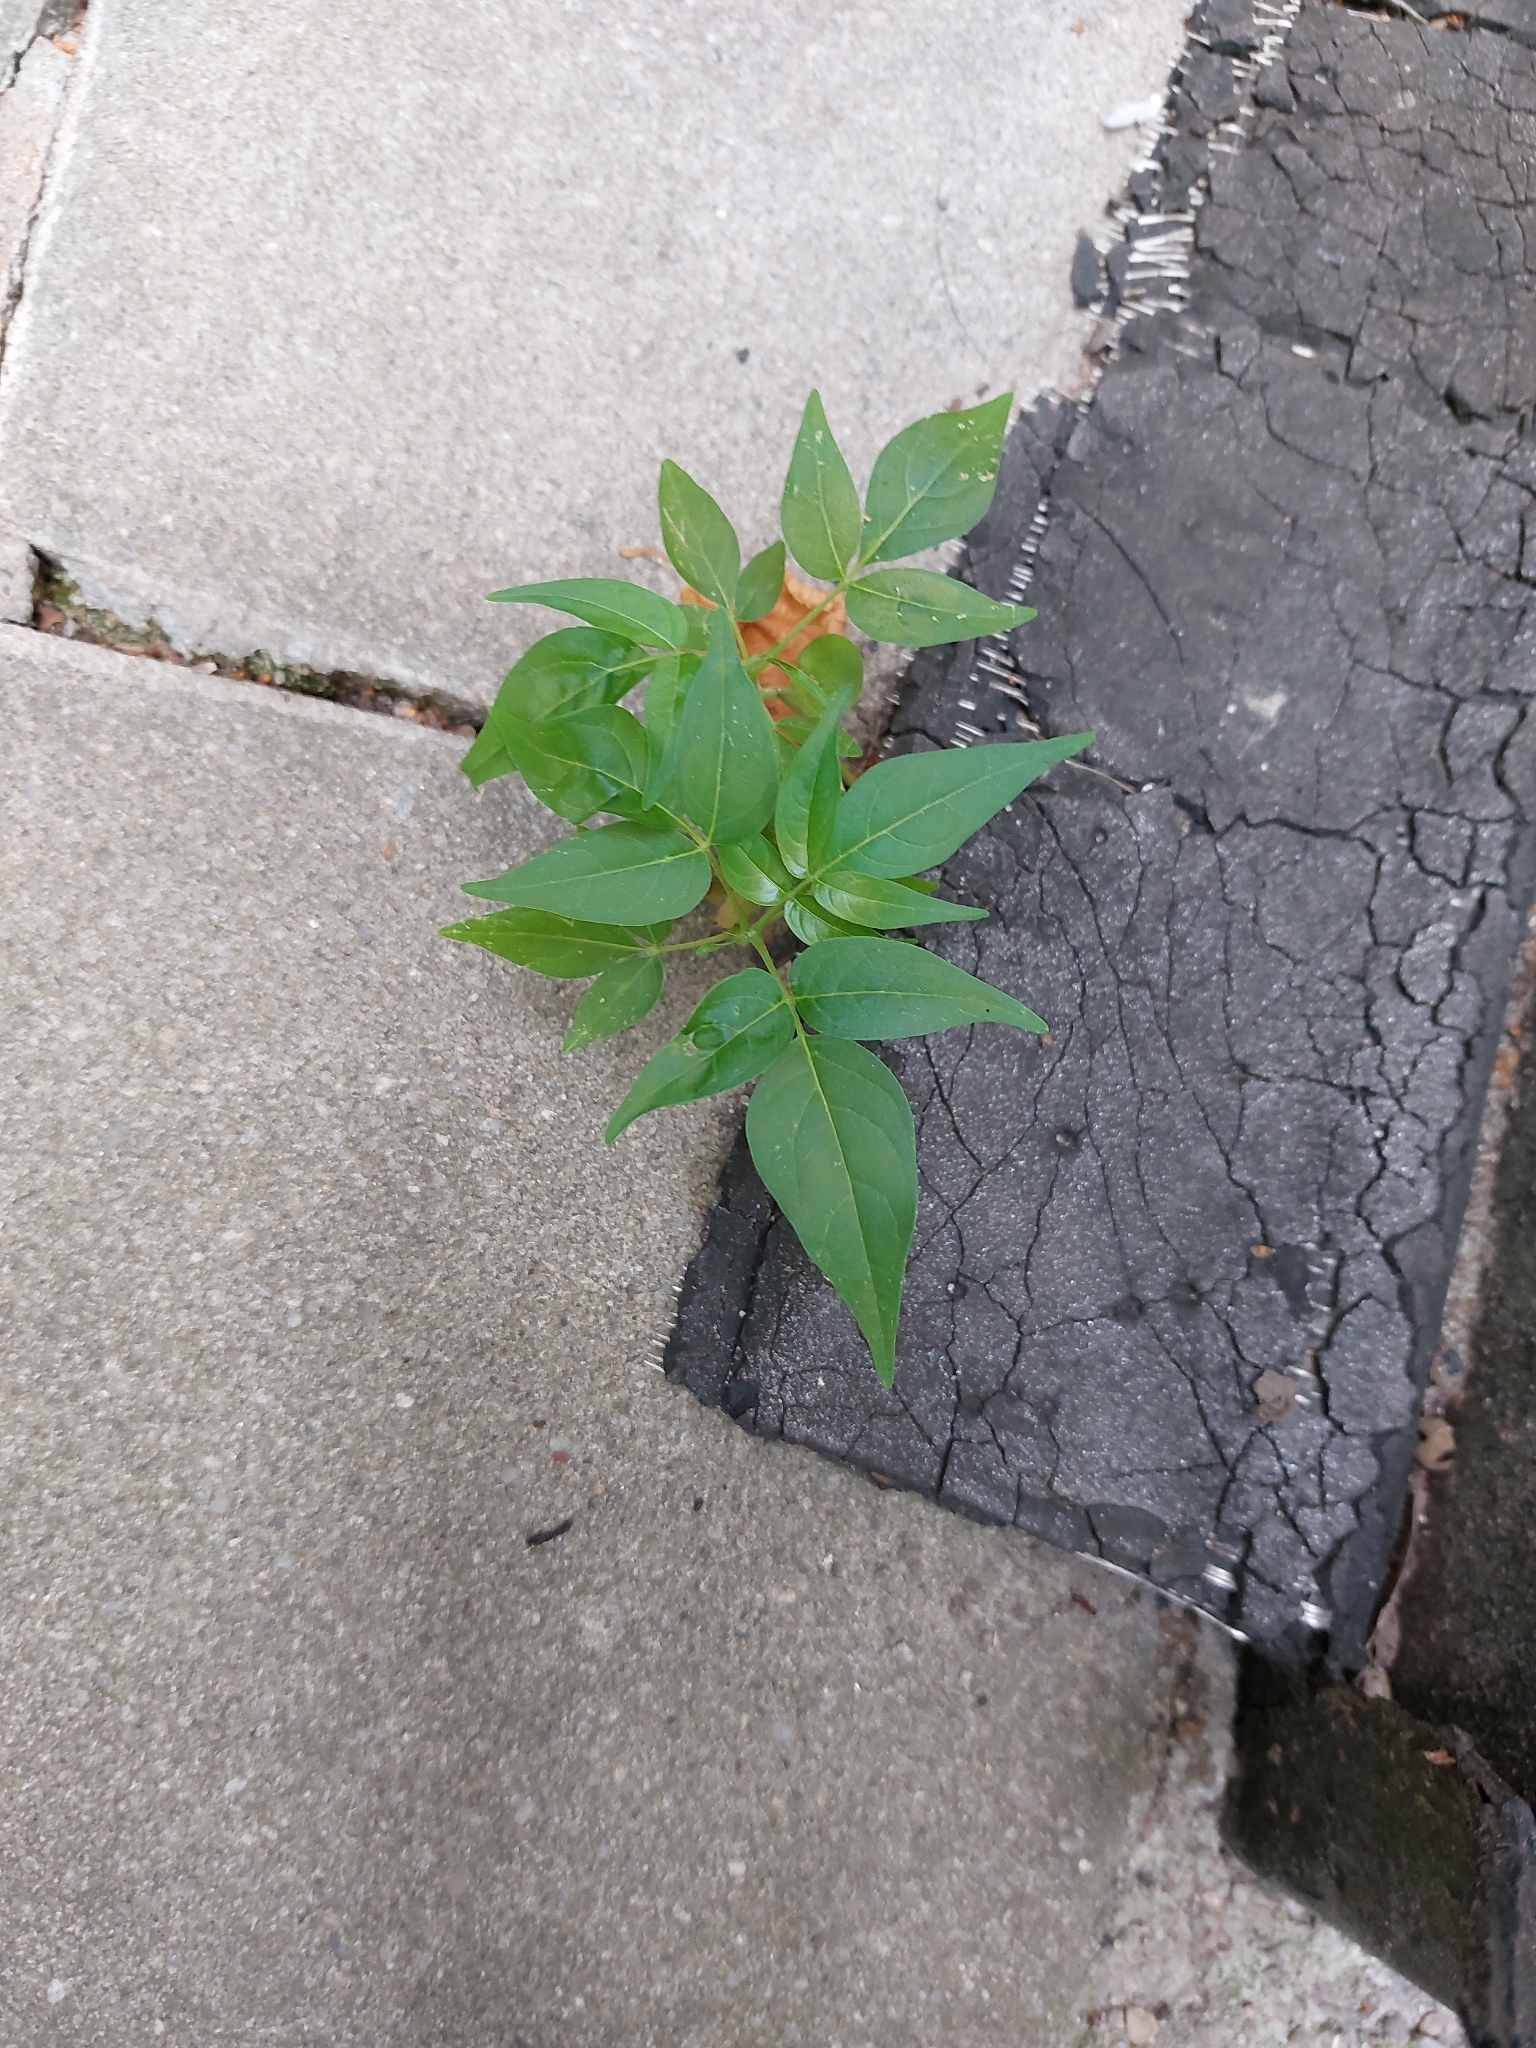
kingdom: Plantae
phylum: Tracheophyta
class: Magnoliopsida
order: Sapindales
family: Simaroubaceae
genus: Ailanthus
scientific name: Ailanthus altissima
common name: Tree-of-heaven
